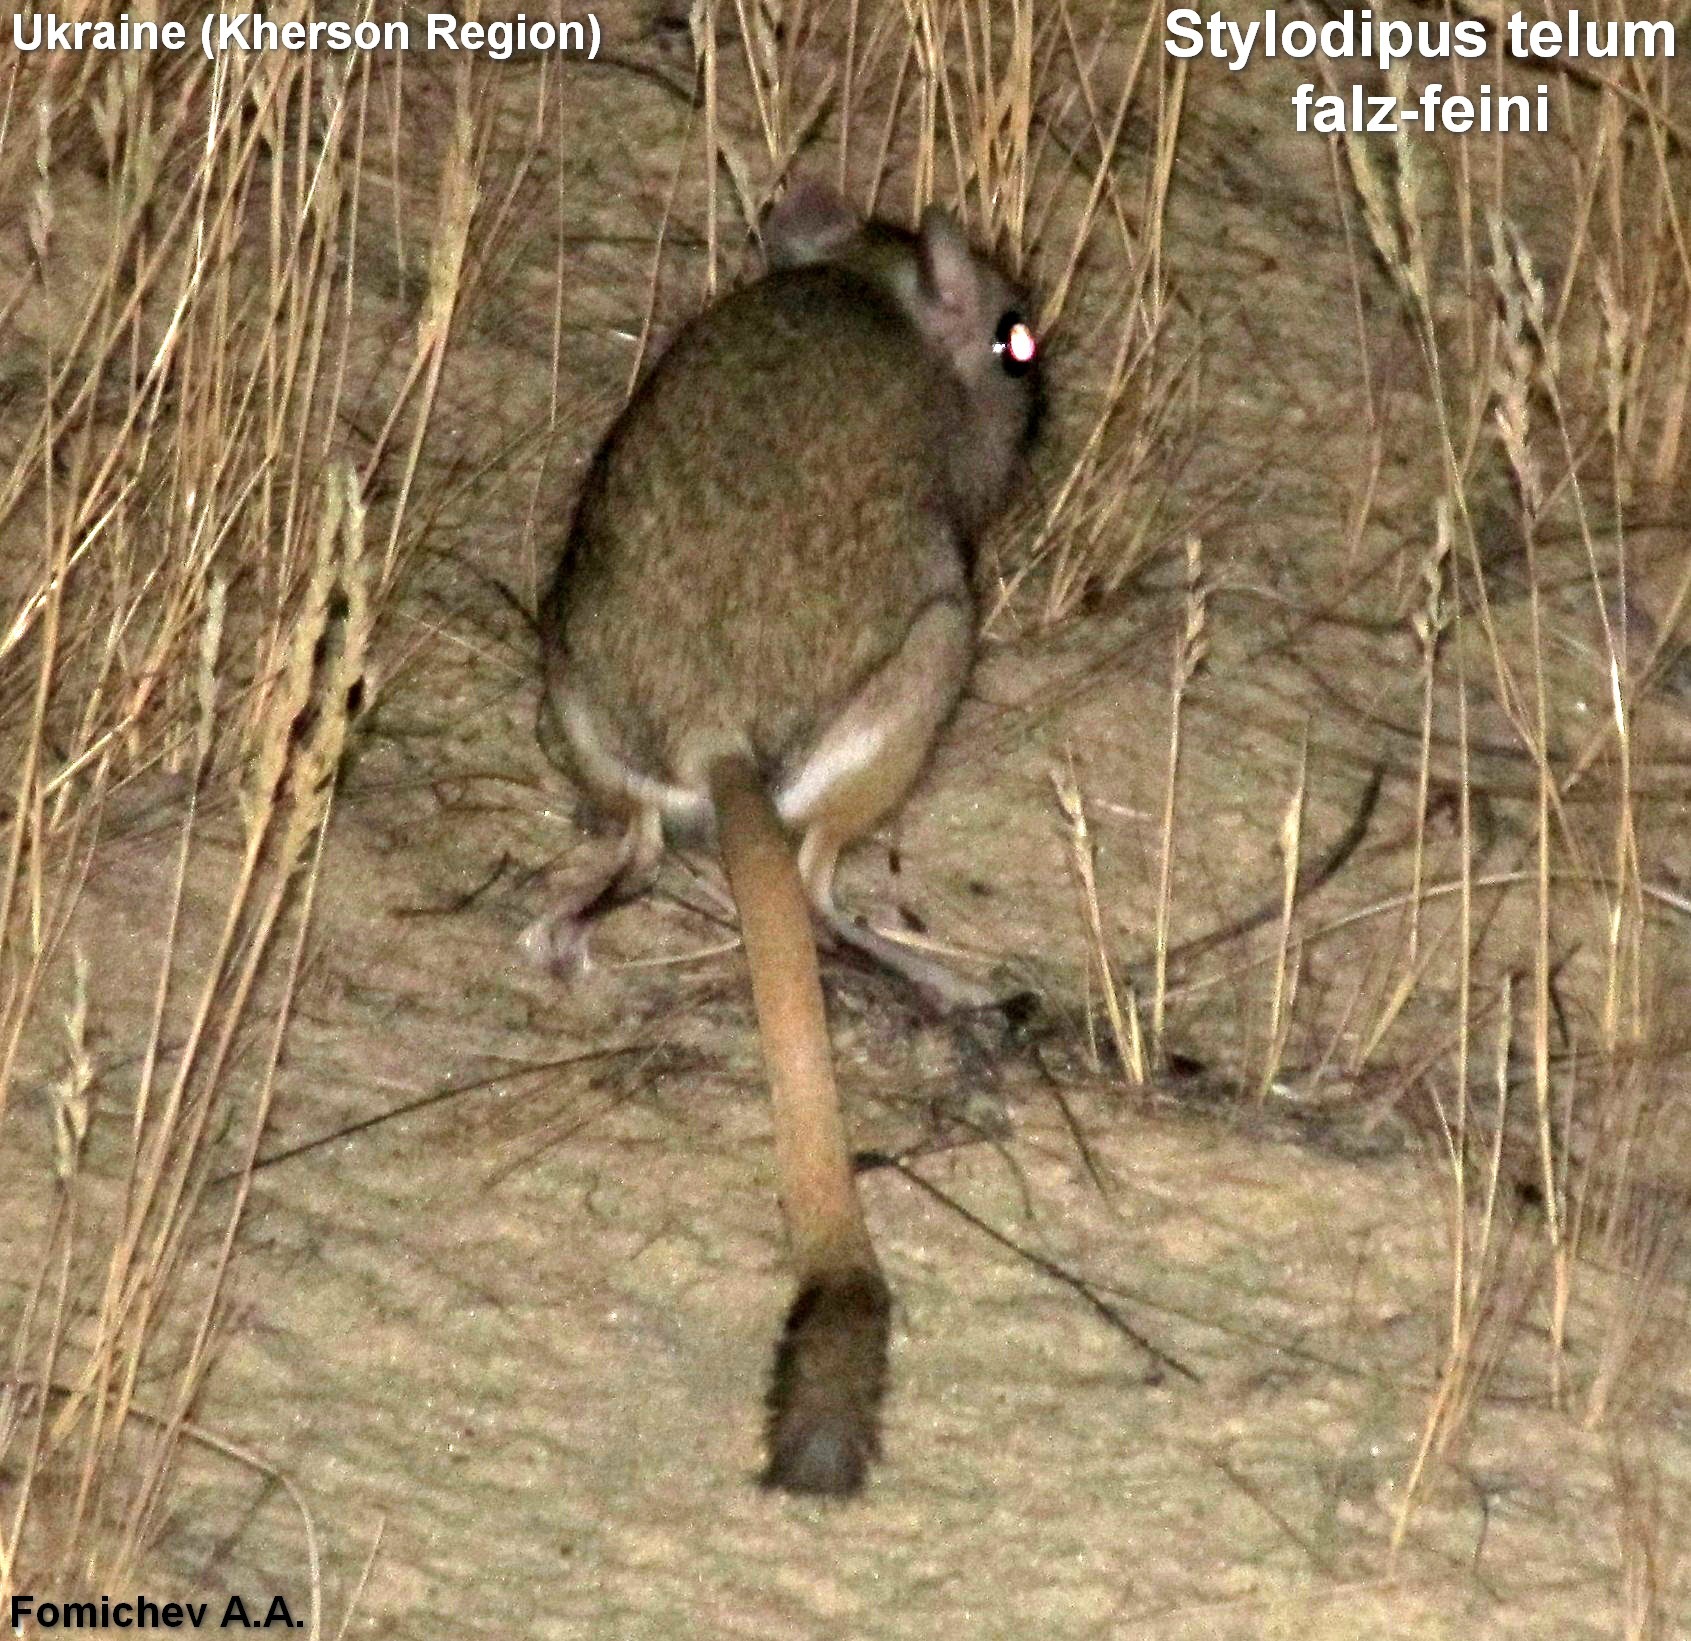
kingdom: Animalia
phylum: Chordata
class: Mammalia
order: Rodentia
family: Dipodidae
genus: Stylodipus
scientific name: Stylodipus telum
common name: Thick-tailed three-toed jerboa
